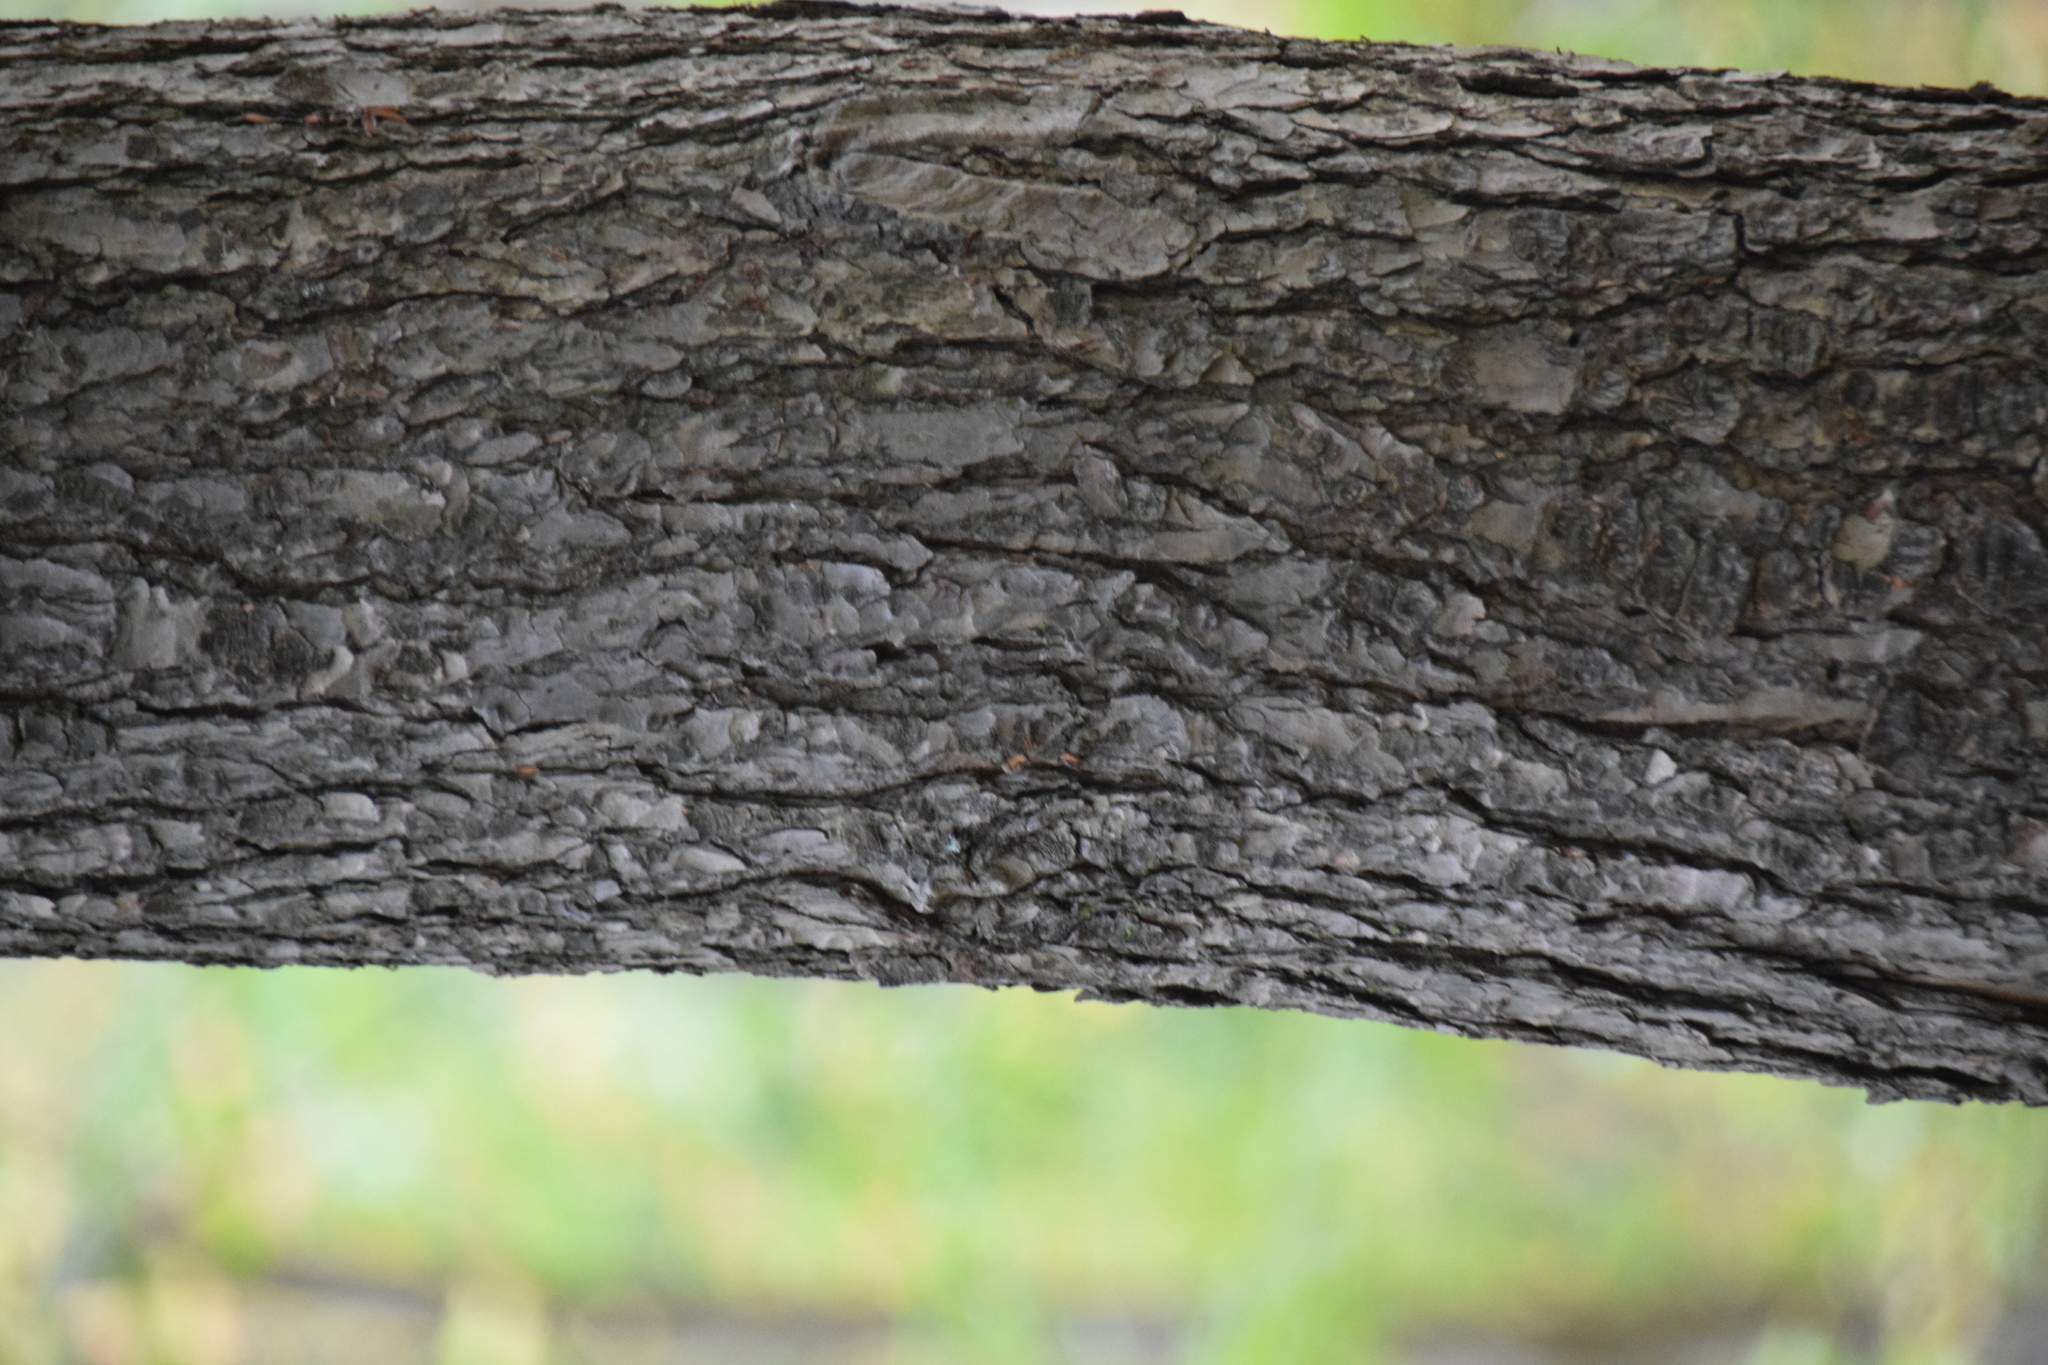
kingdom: Plantae
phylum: Tracheophyta
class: Pinopsida
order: Pinales
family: Pinaceae
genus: Tsuga
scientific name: Tsuga canadensis
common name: Eastern hemlock
